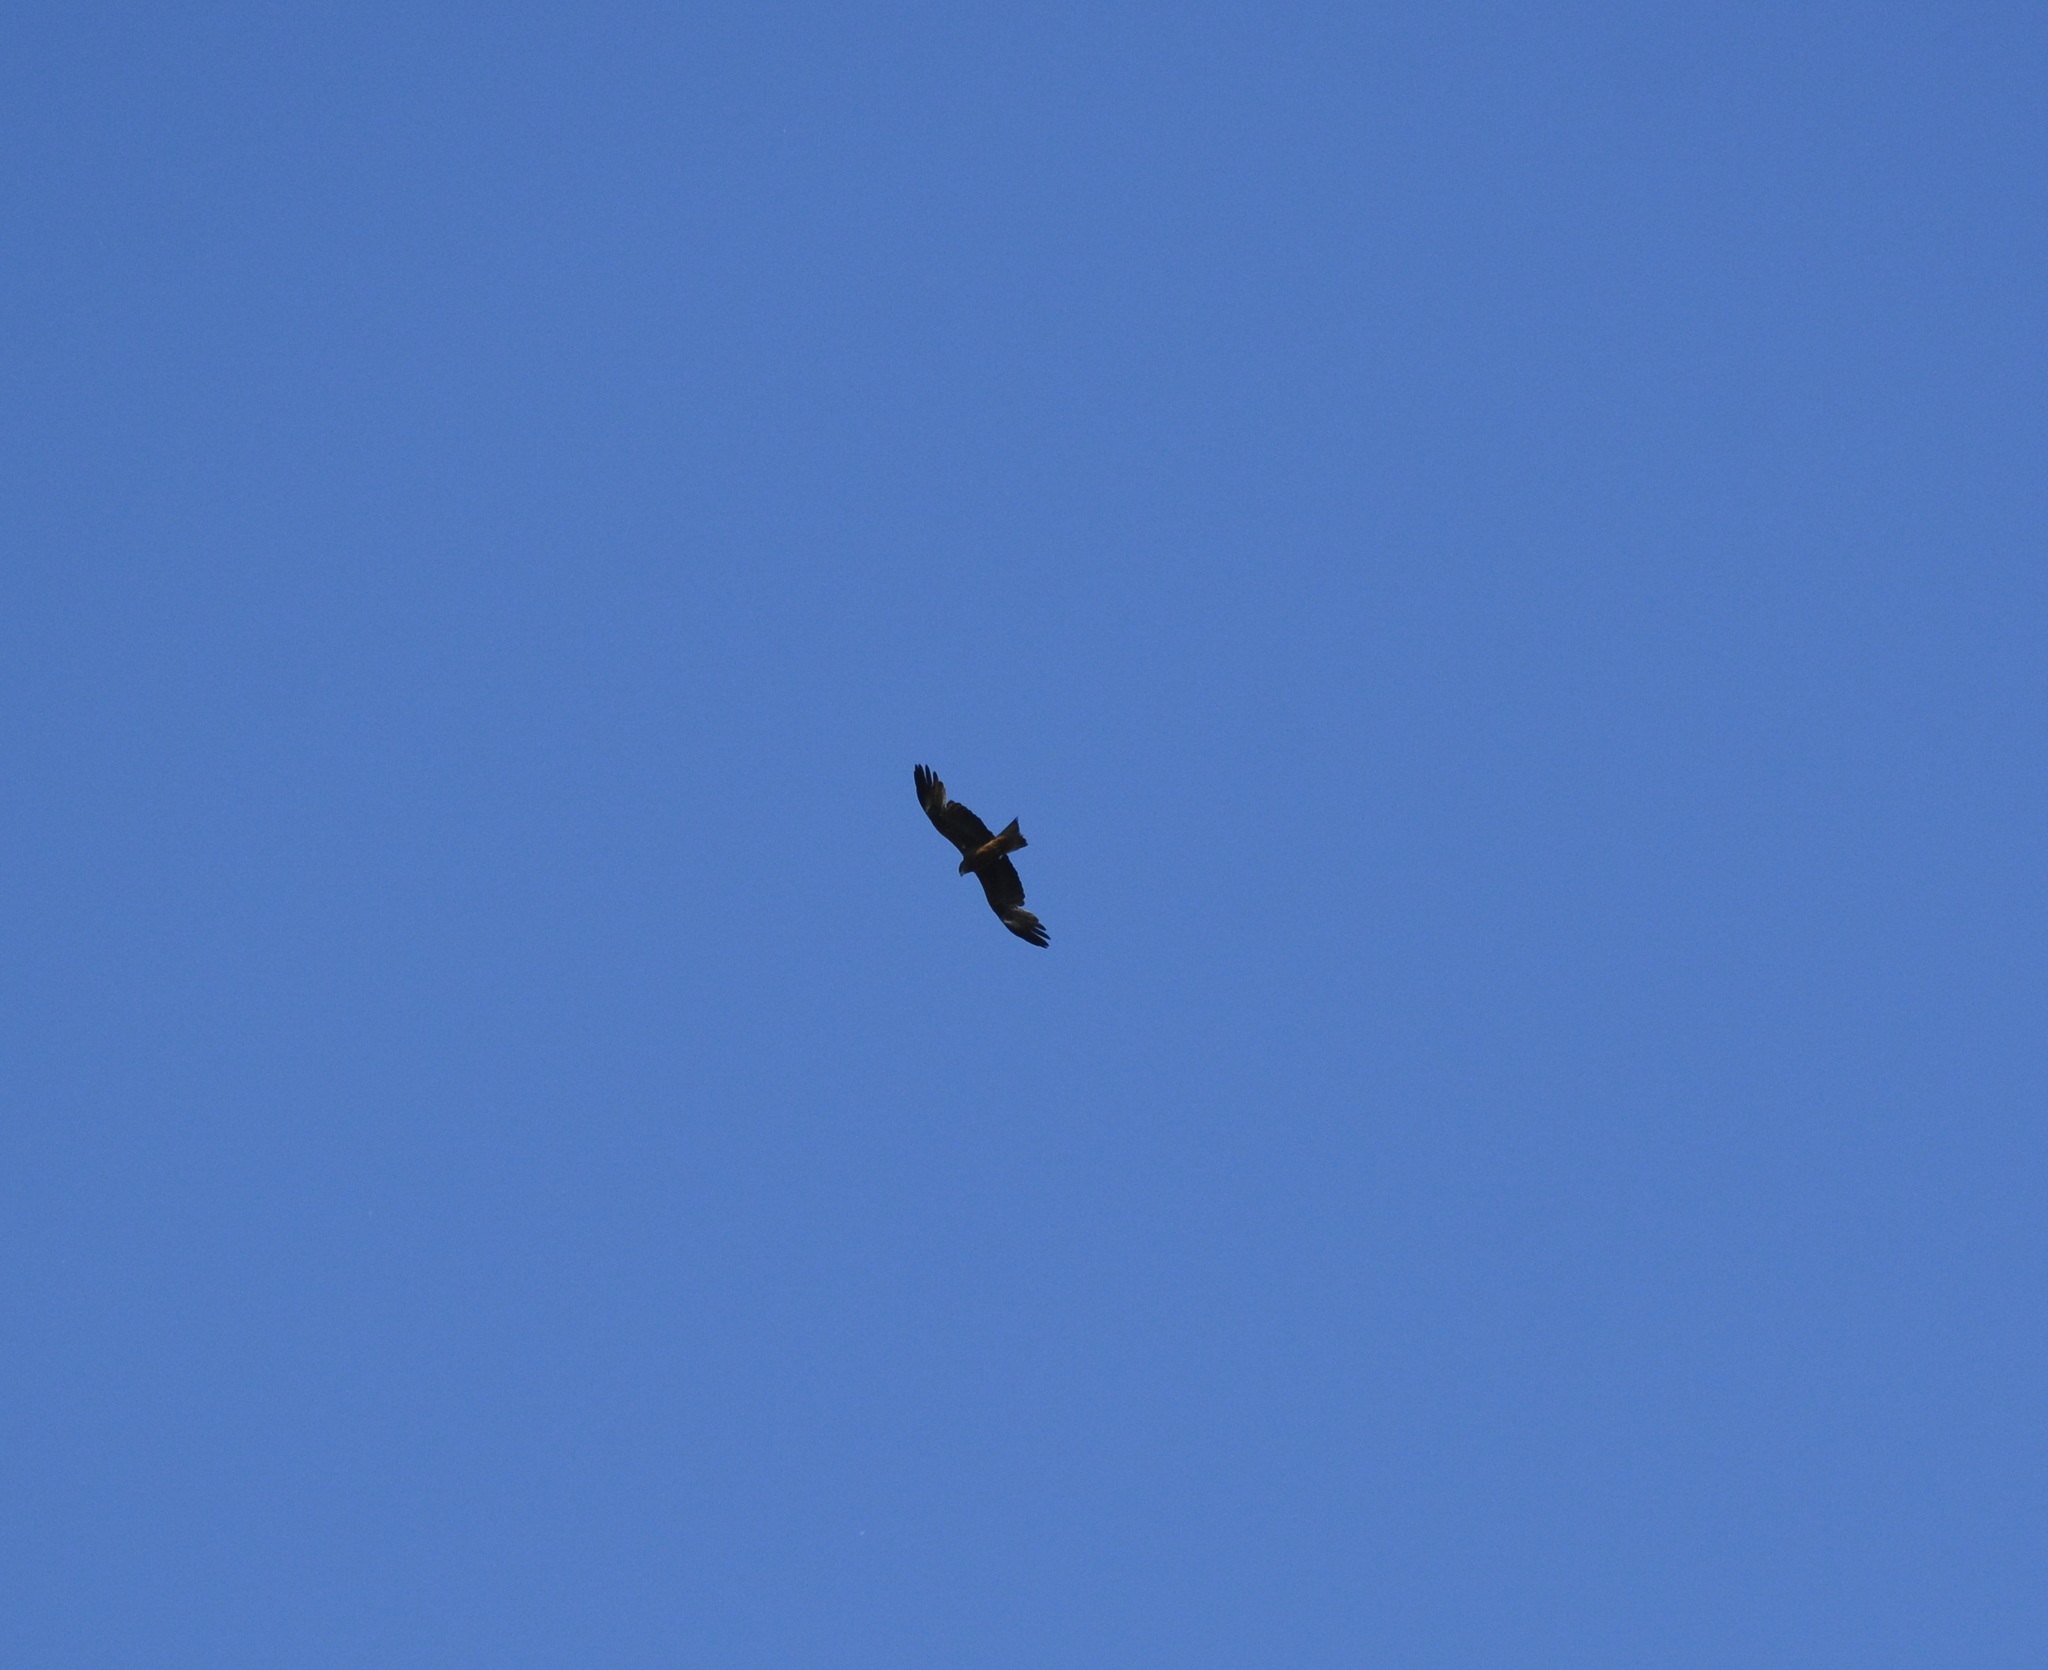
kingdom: Animalia
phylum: Chordata
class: Aves
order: Accipitriformes
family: Accipitridae
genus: Milvus
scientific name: Milvus migrans
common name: Black kite
